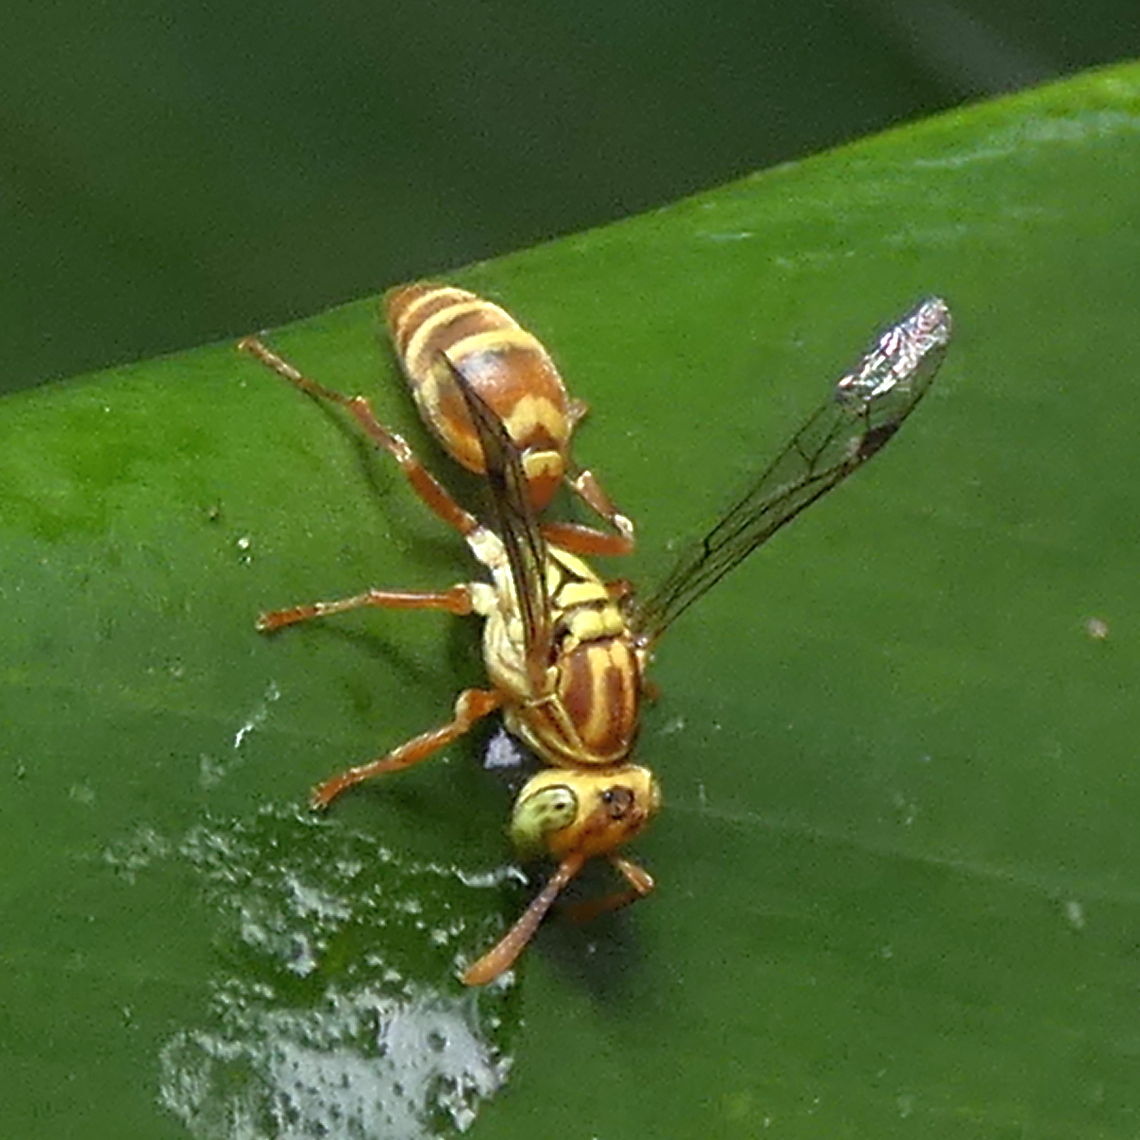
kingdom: Animalia
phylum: Arthropoda
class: Insecta
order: Hymenoptera
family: Vespidae
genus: Protopolybia
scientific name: Protopolybia potiguara
